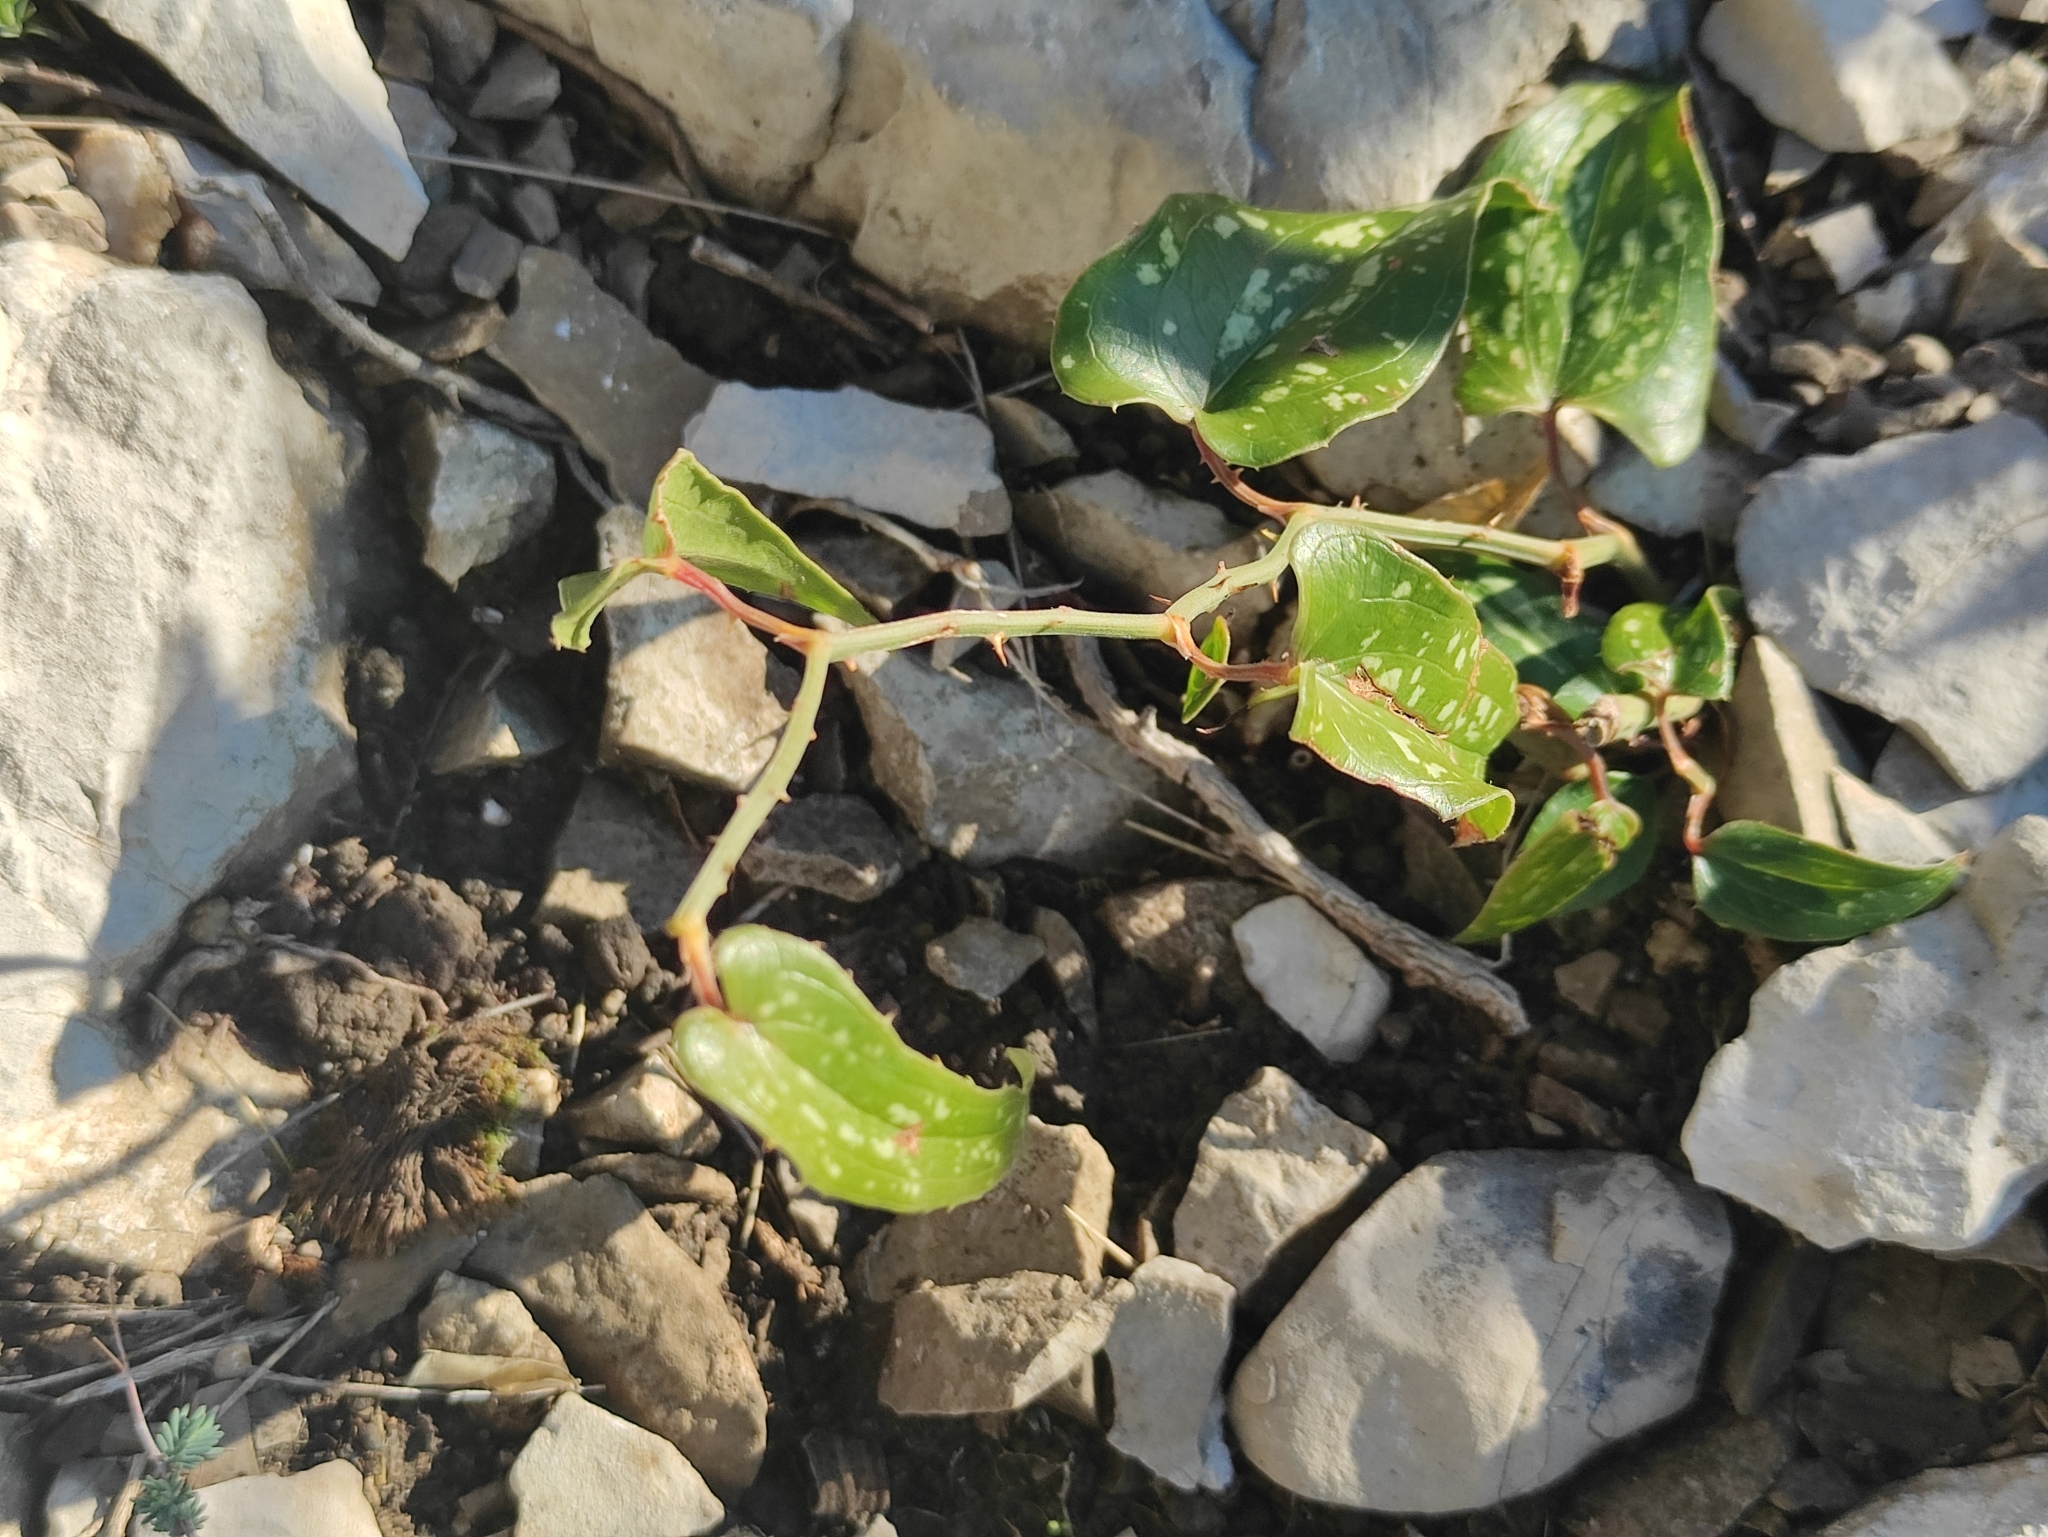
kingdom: Plantae
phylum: Tracheophyta
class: Liliopsida
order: Liliales
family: Smilacaceae
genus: Smilax
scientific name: Smilax aspera
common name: Common smilax
